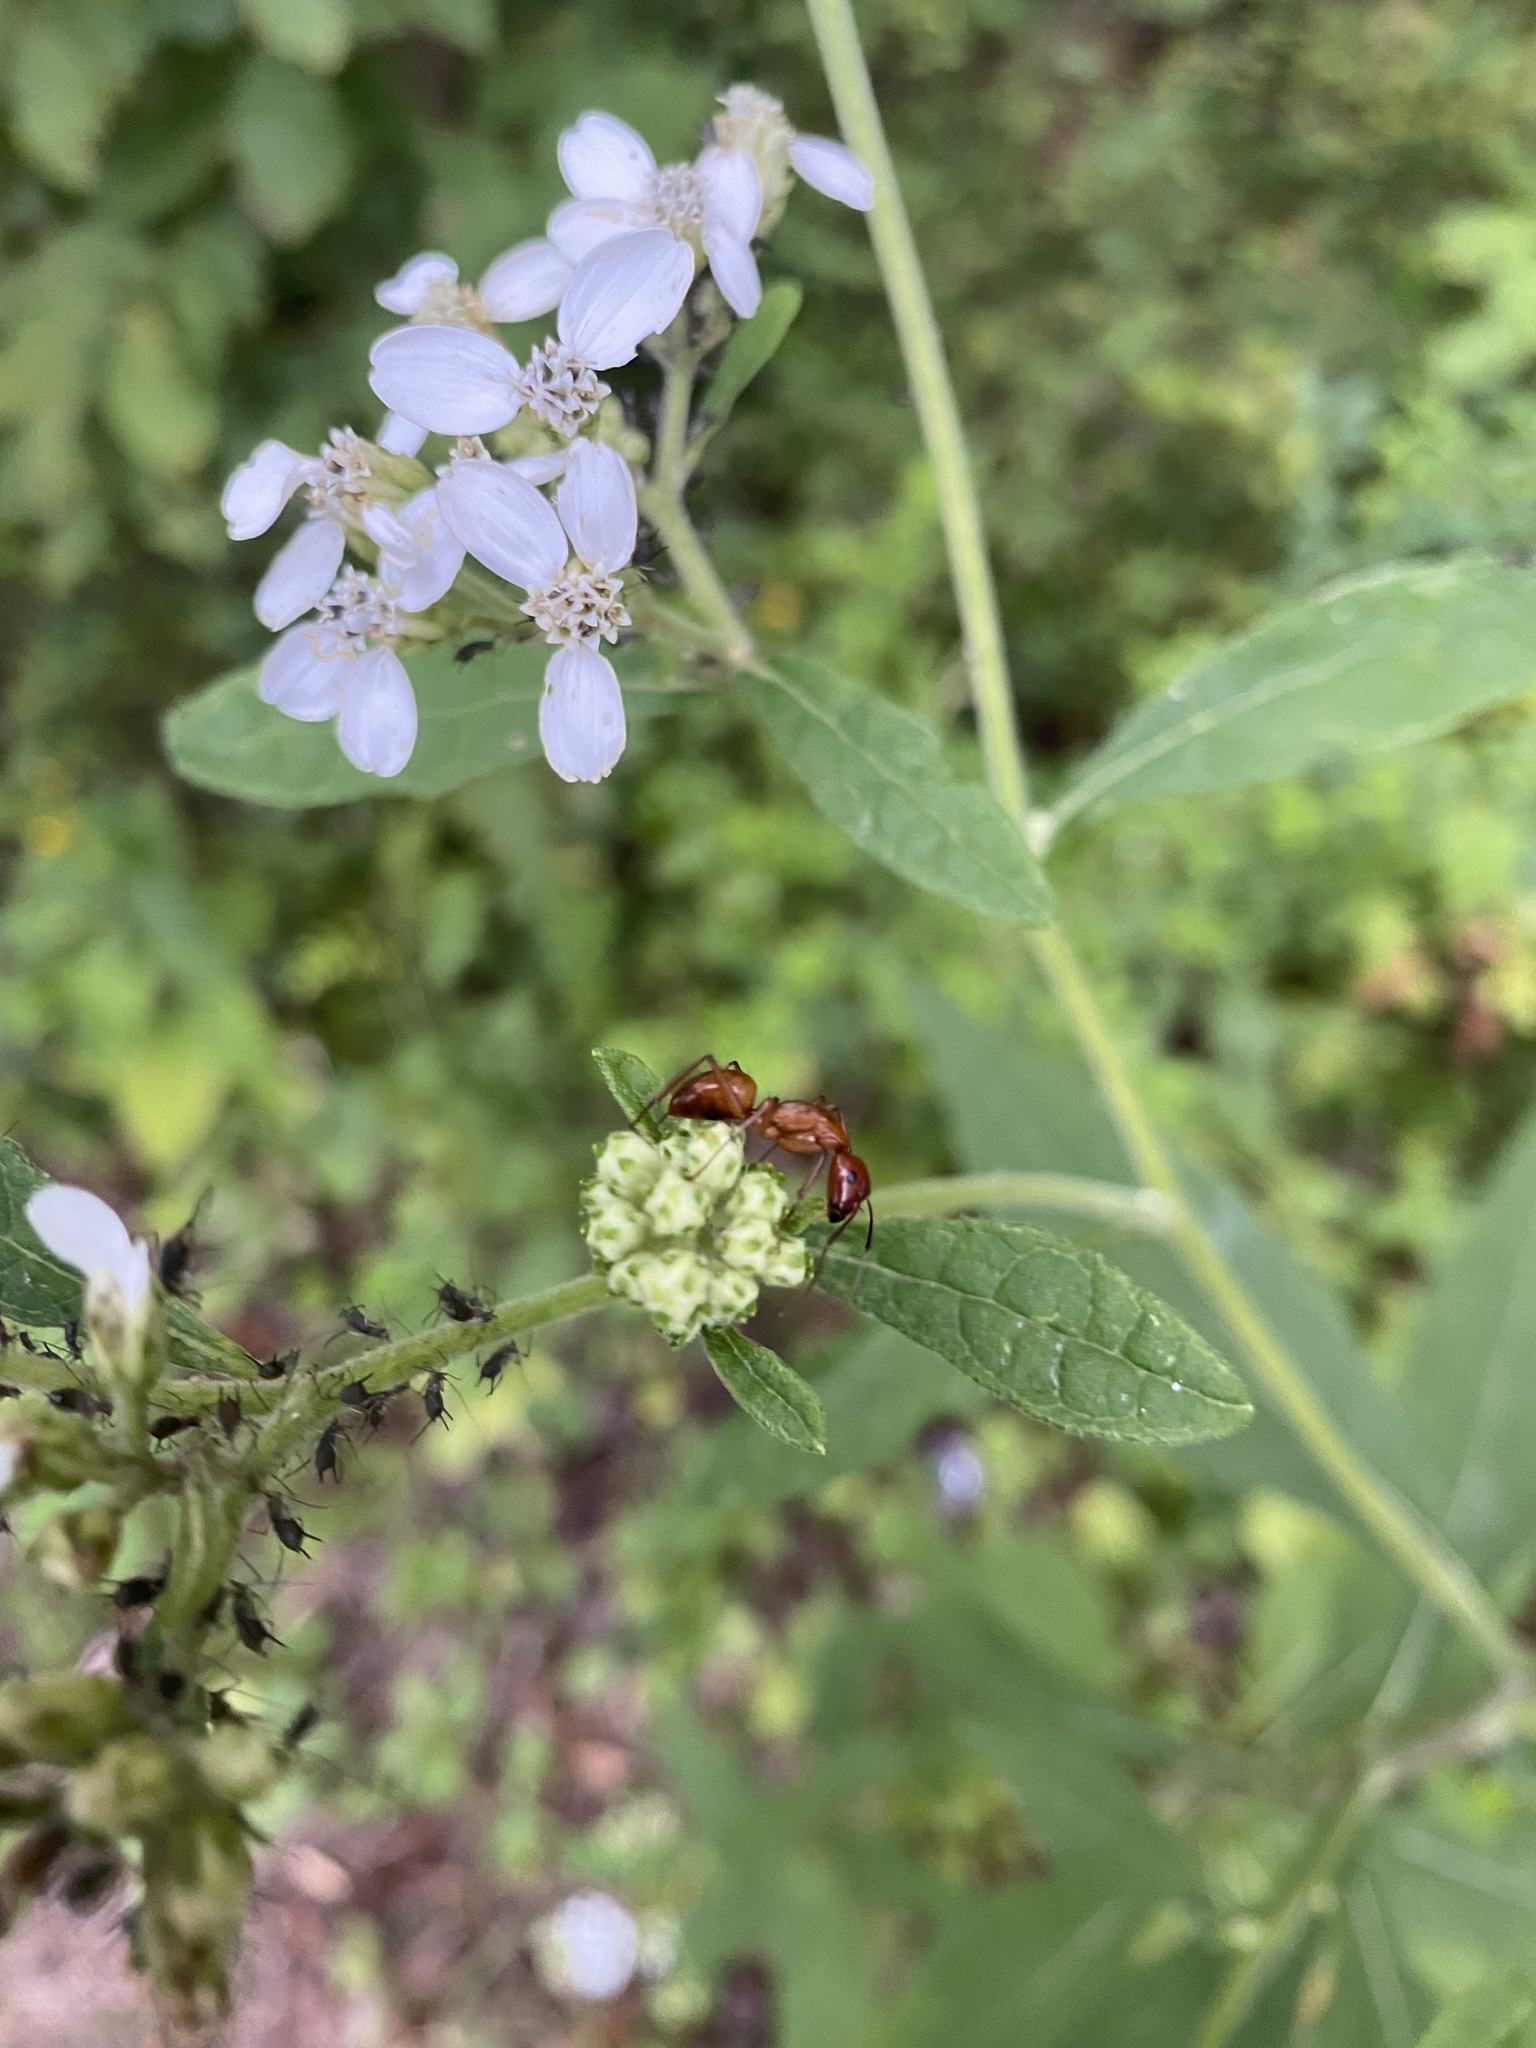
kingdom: Animalia
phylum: Arthropoda
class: Insecta
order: Hymenoptera
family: Formicidae
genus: Camponotus
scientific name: Camponotus castaneus
